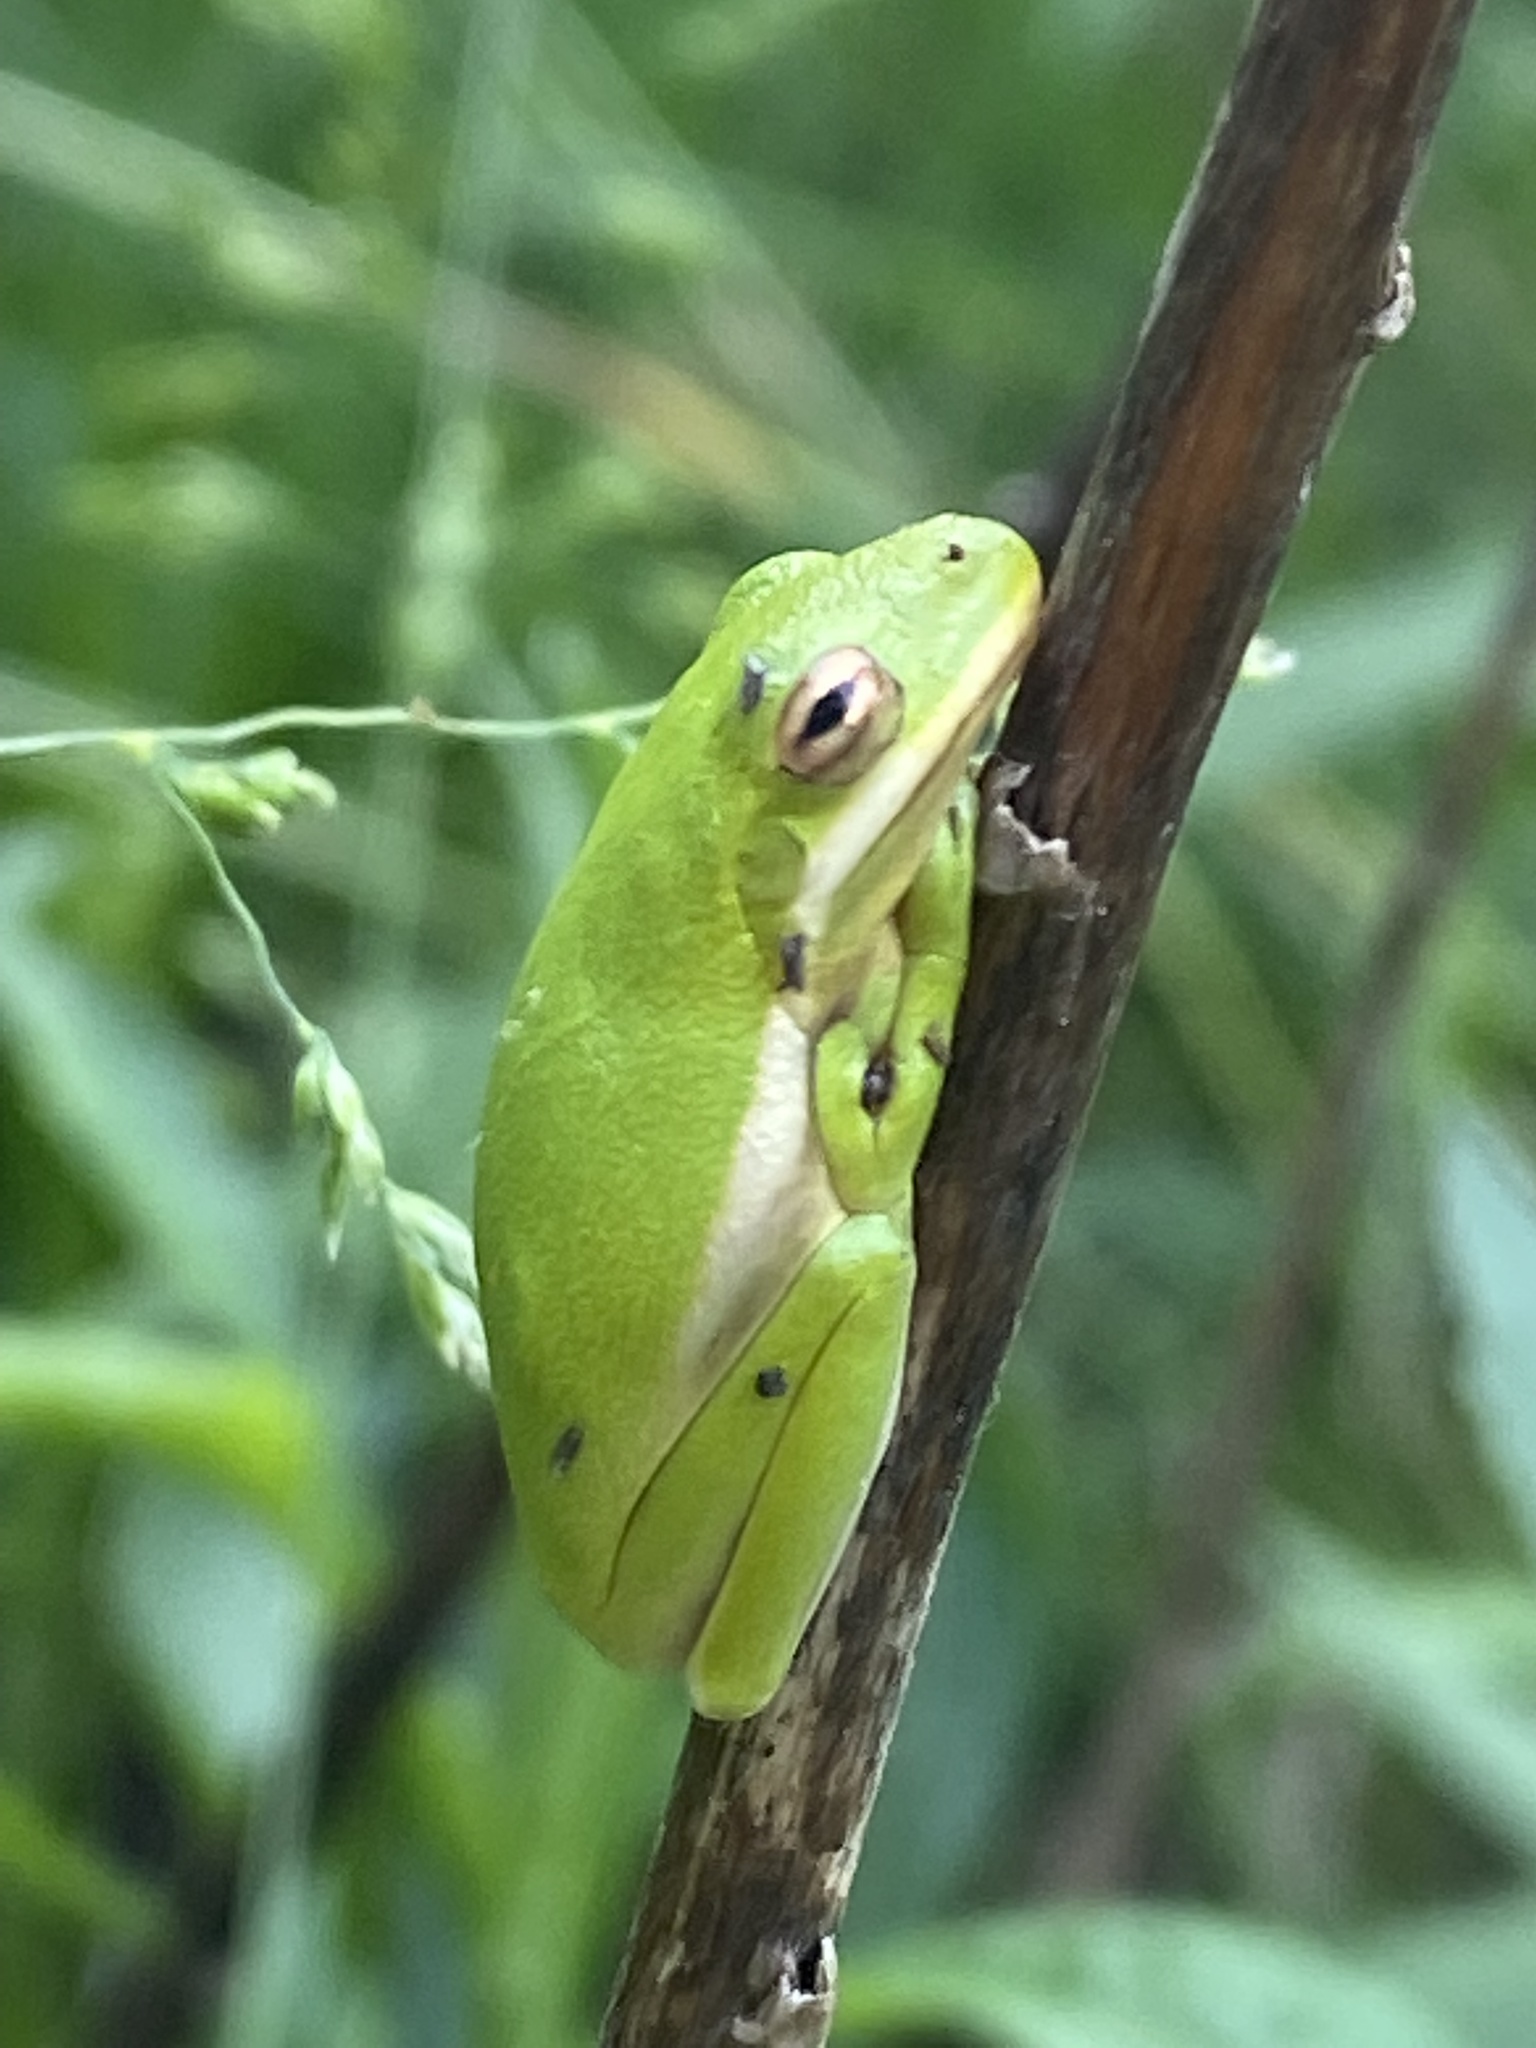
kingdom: Animalia
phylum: Chordata
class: Amphibia
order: Anura
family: Hylidae
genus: Dryophytes
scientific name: Dryophytes cinereus
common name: Green treefrog
